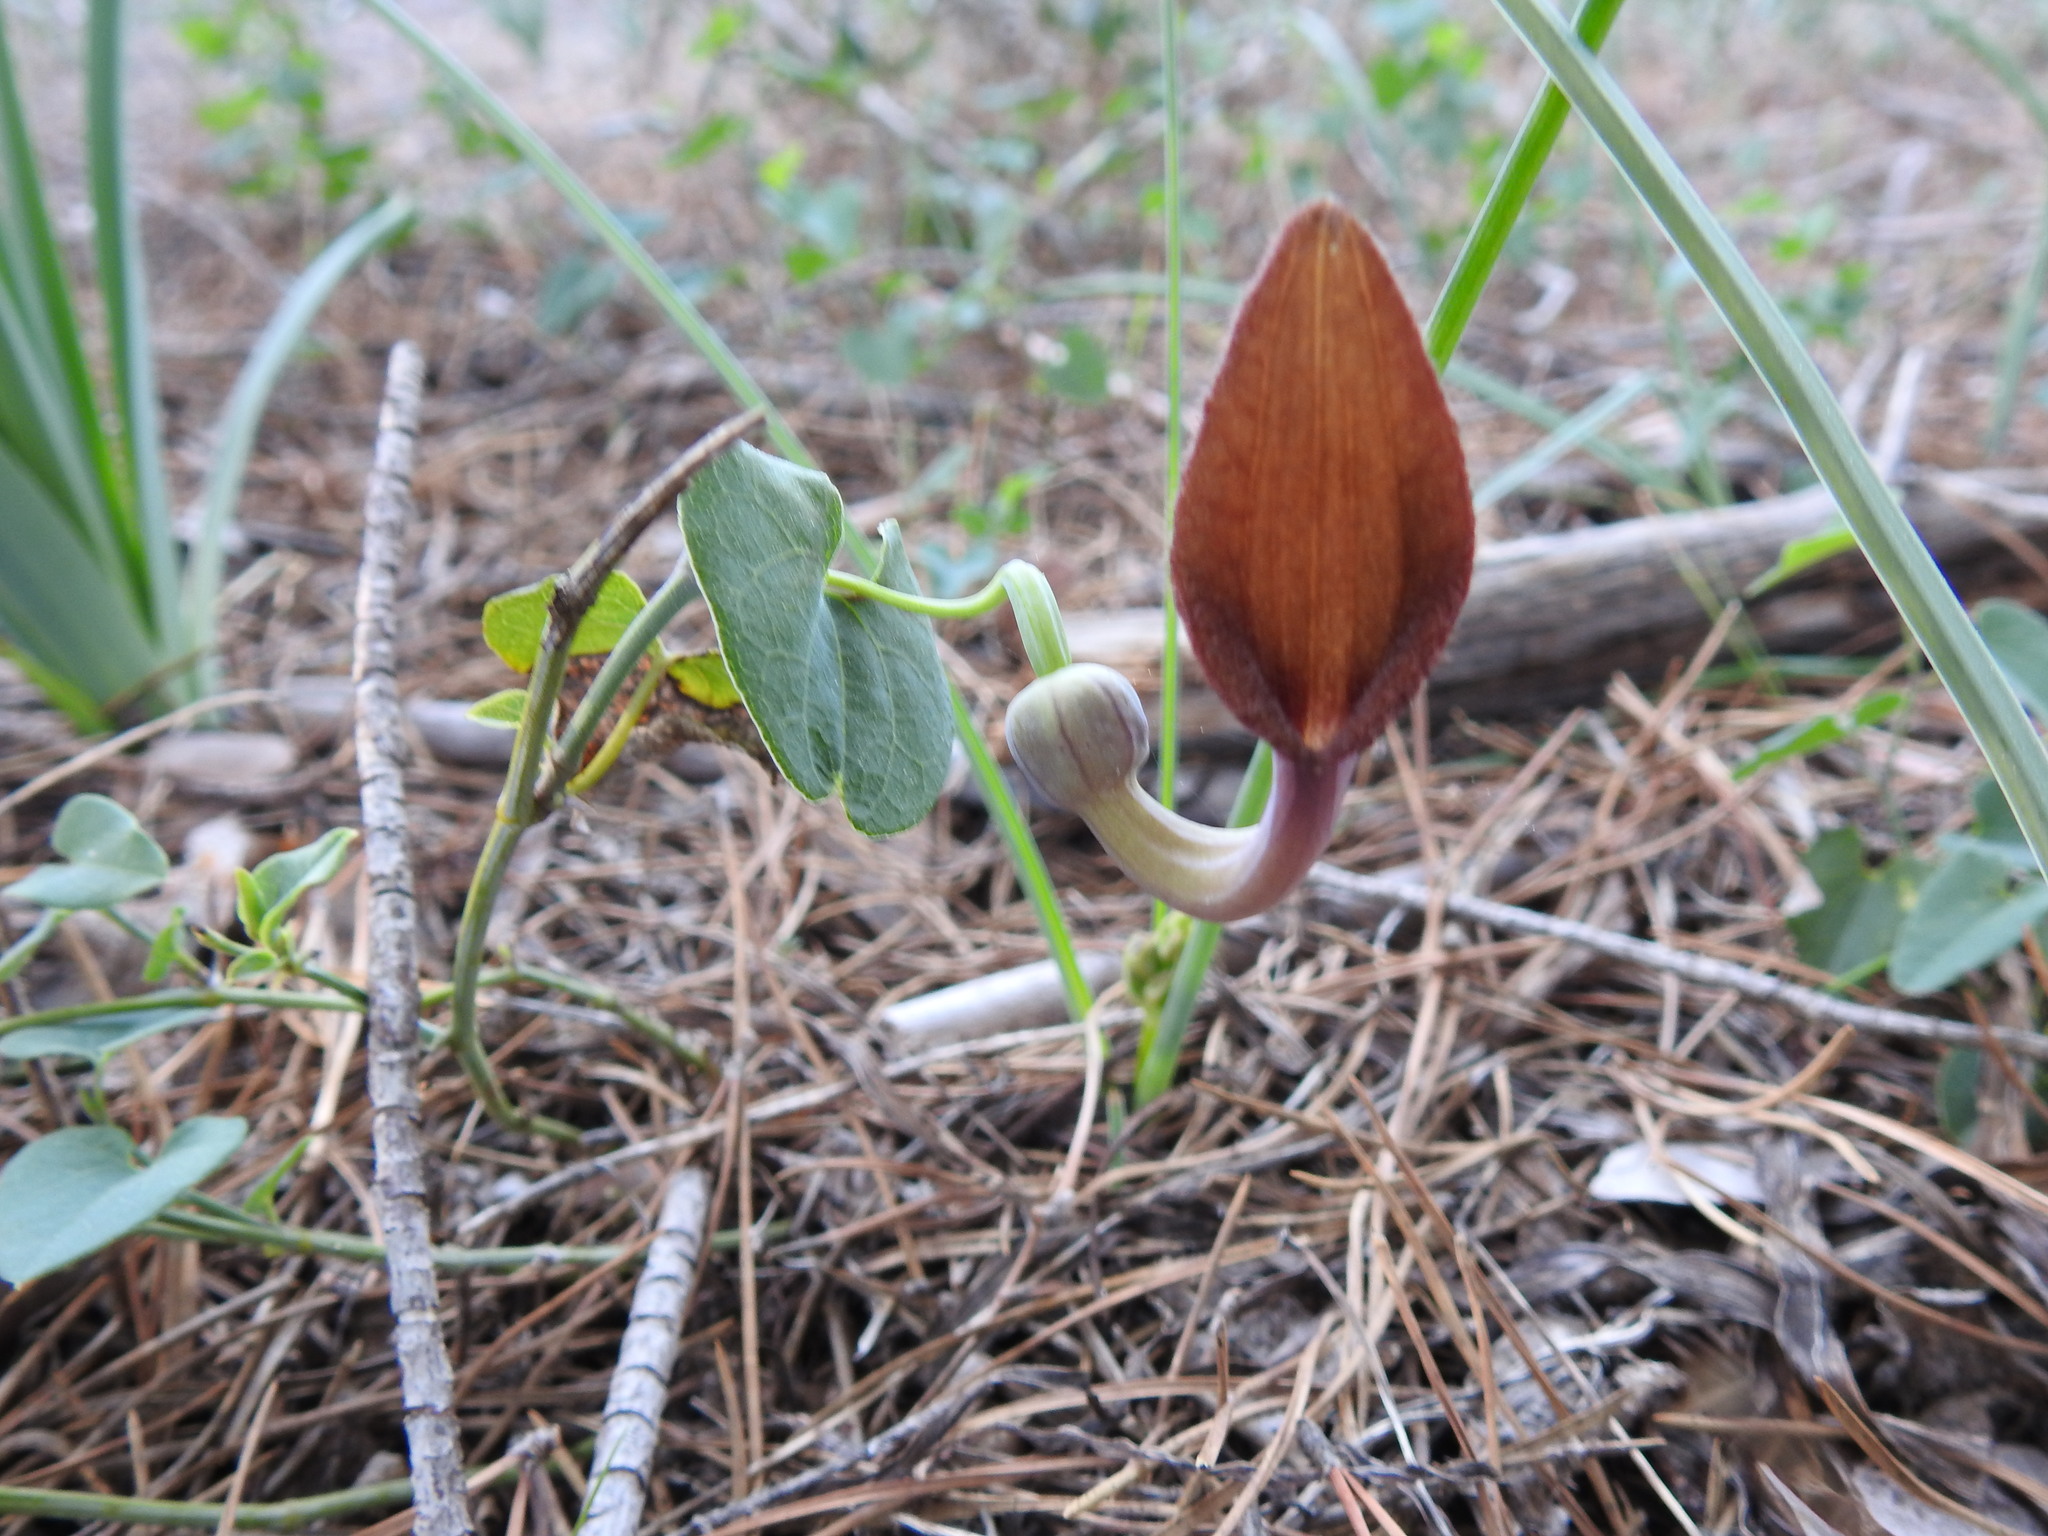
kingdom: Plantae
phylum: Tracheophyta
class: Magnoliopsida
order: Piperales
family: Aristolochiaceae
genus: Aristolochia
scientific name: Aristolochia baetica
